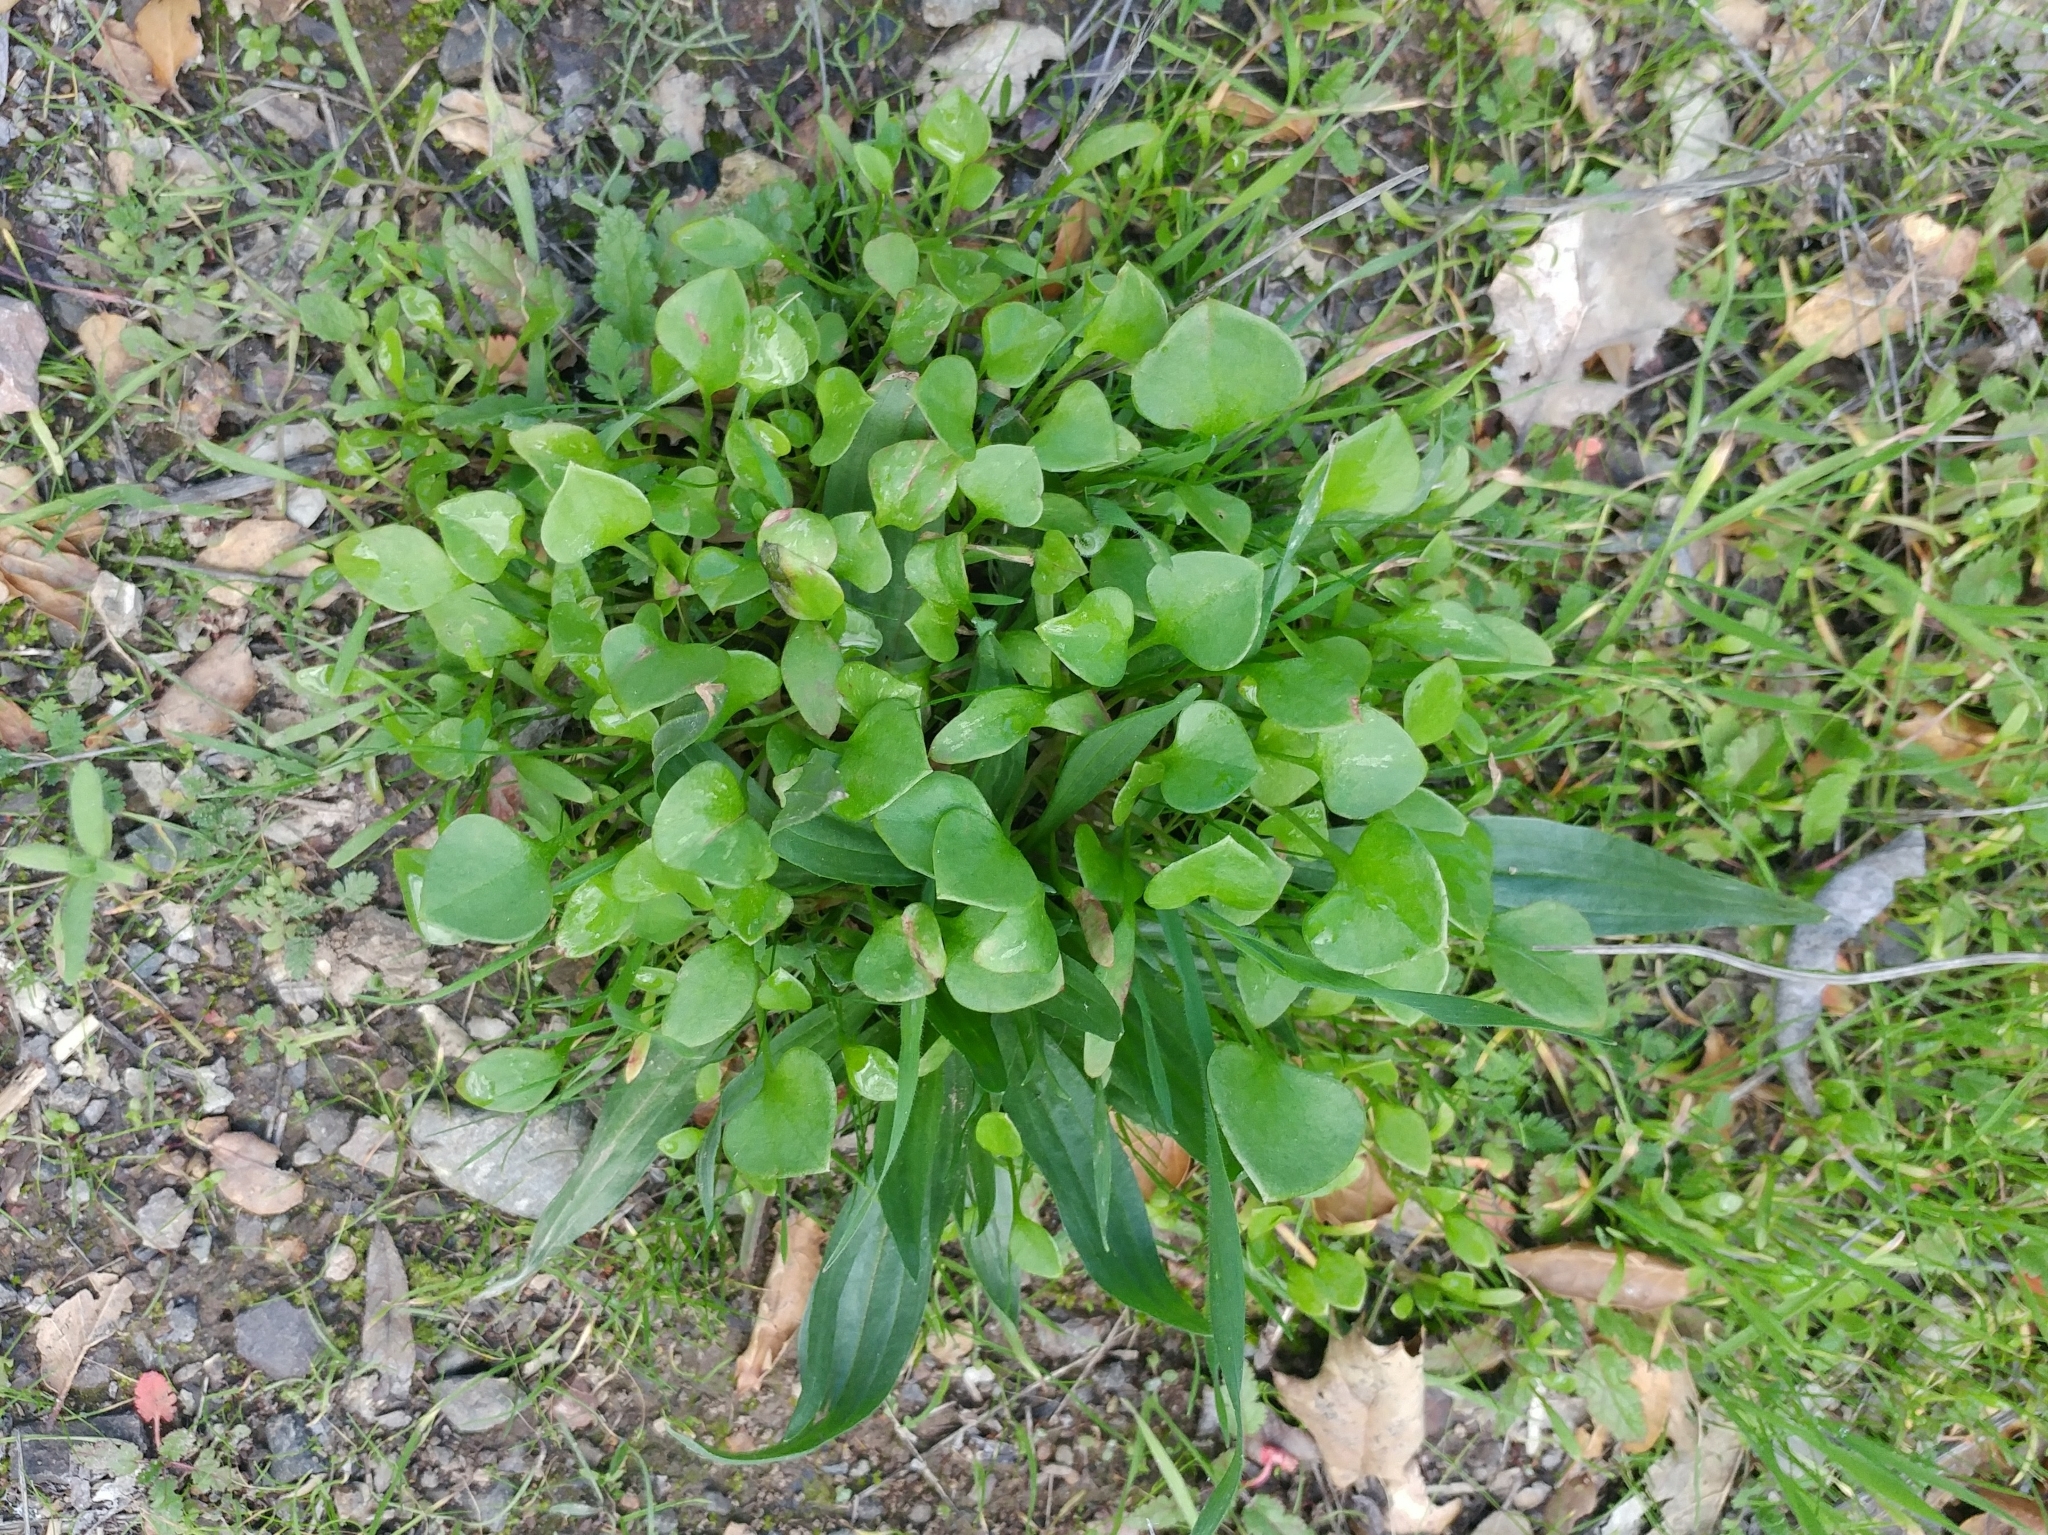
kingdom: Plantae
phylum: Tracheophyta
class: Magnoliopsida
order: Caryophyllales
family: Montiaceae
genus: Claytonia
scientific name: Claytonia perfoliata
